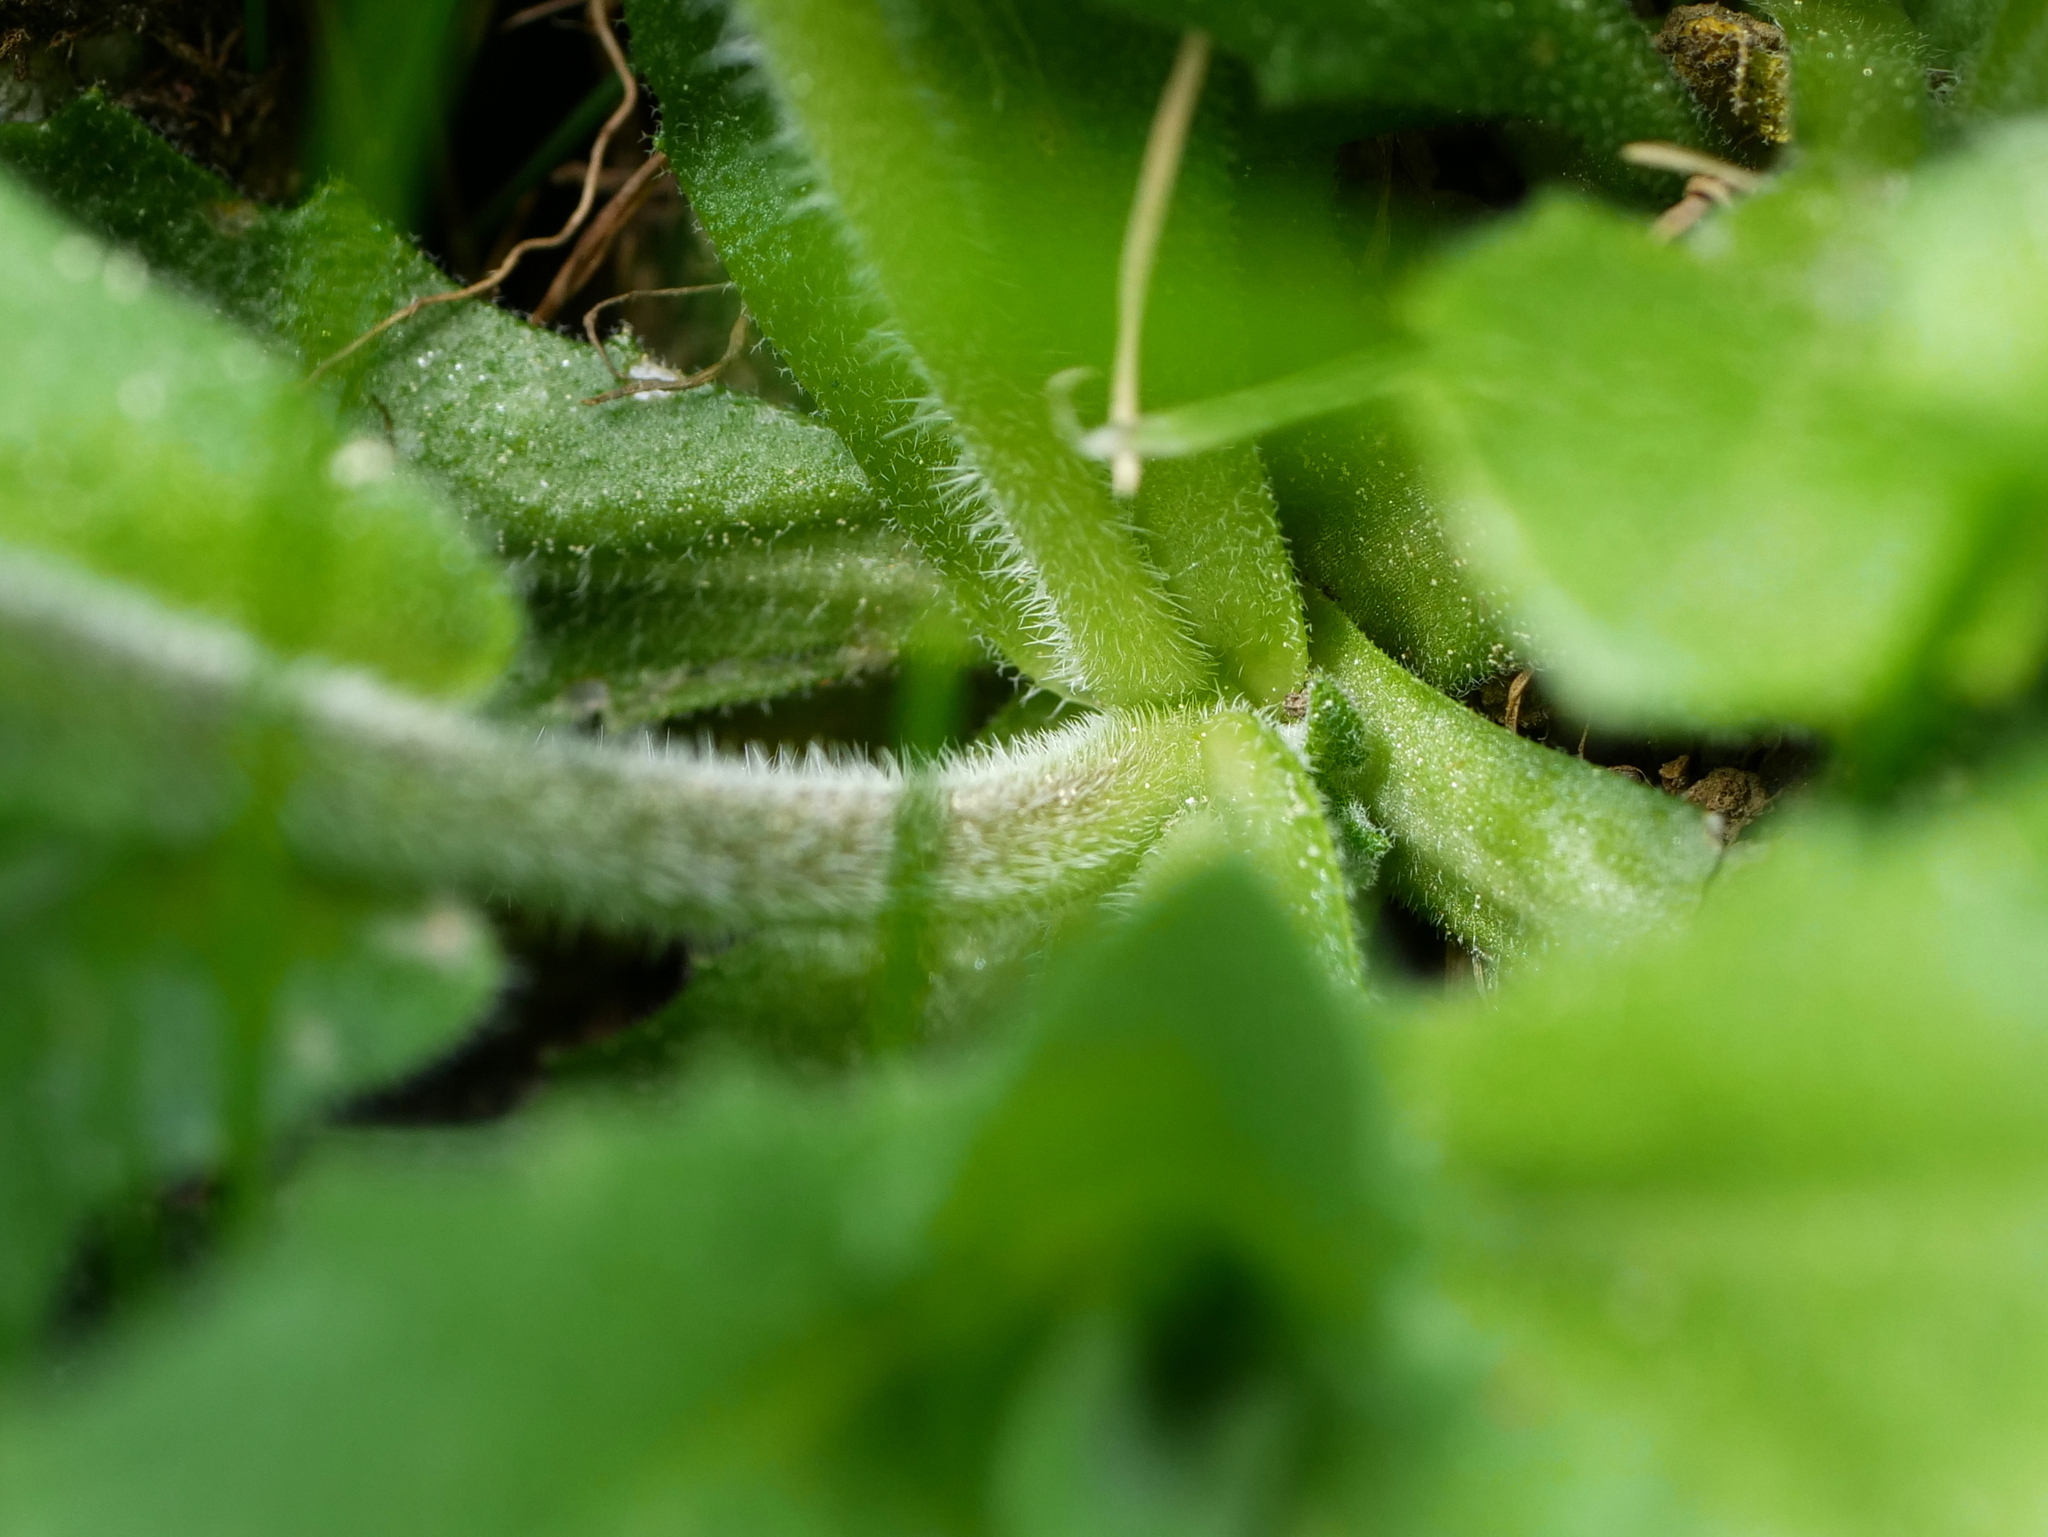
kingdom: Plantae
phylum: Tracheophyta
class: Magnoliopsida
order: Brassicales
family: Brassicaceae
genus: Arabis
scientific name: Arabis alpina
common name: Alpine rock-cress
